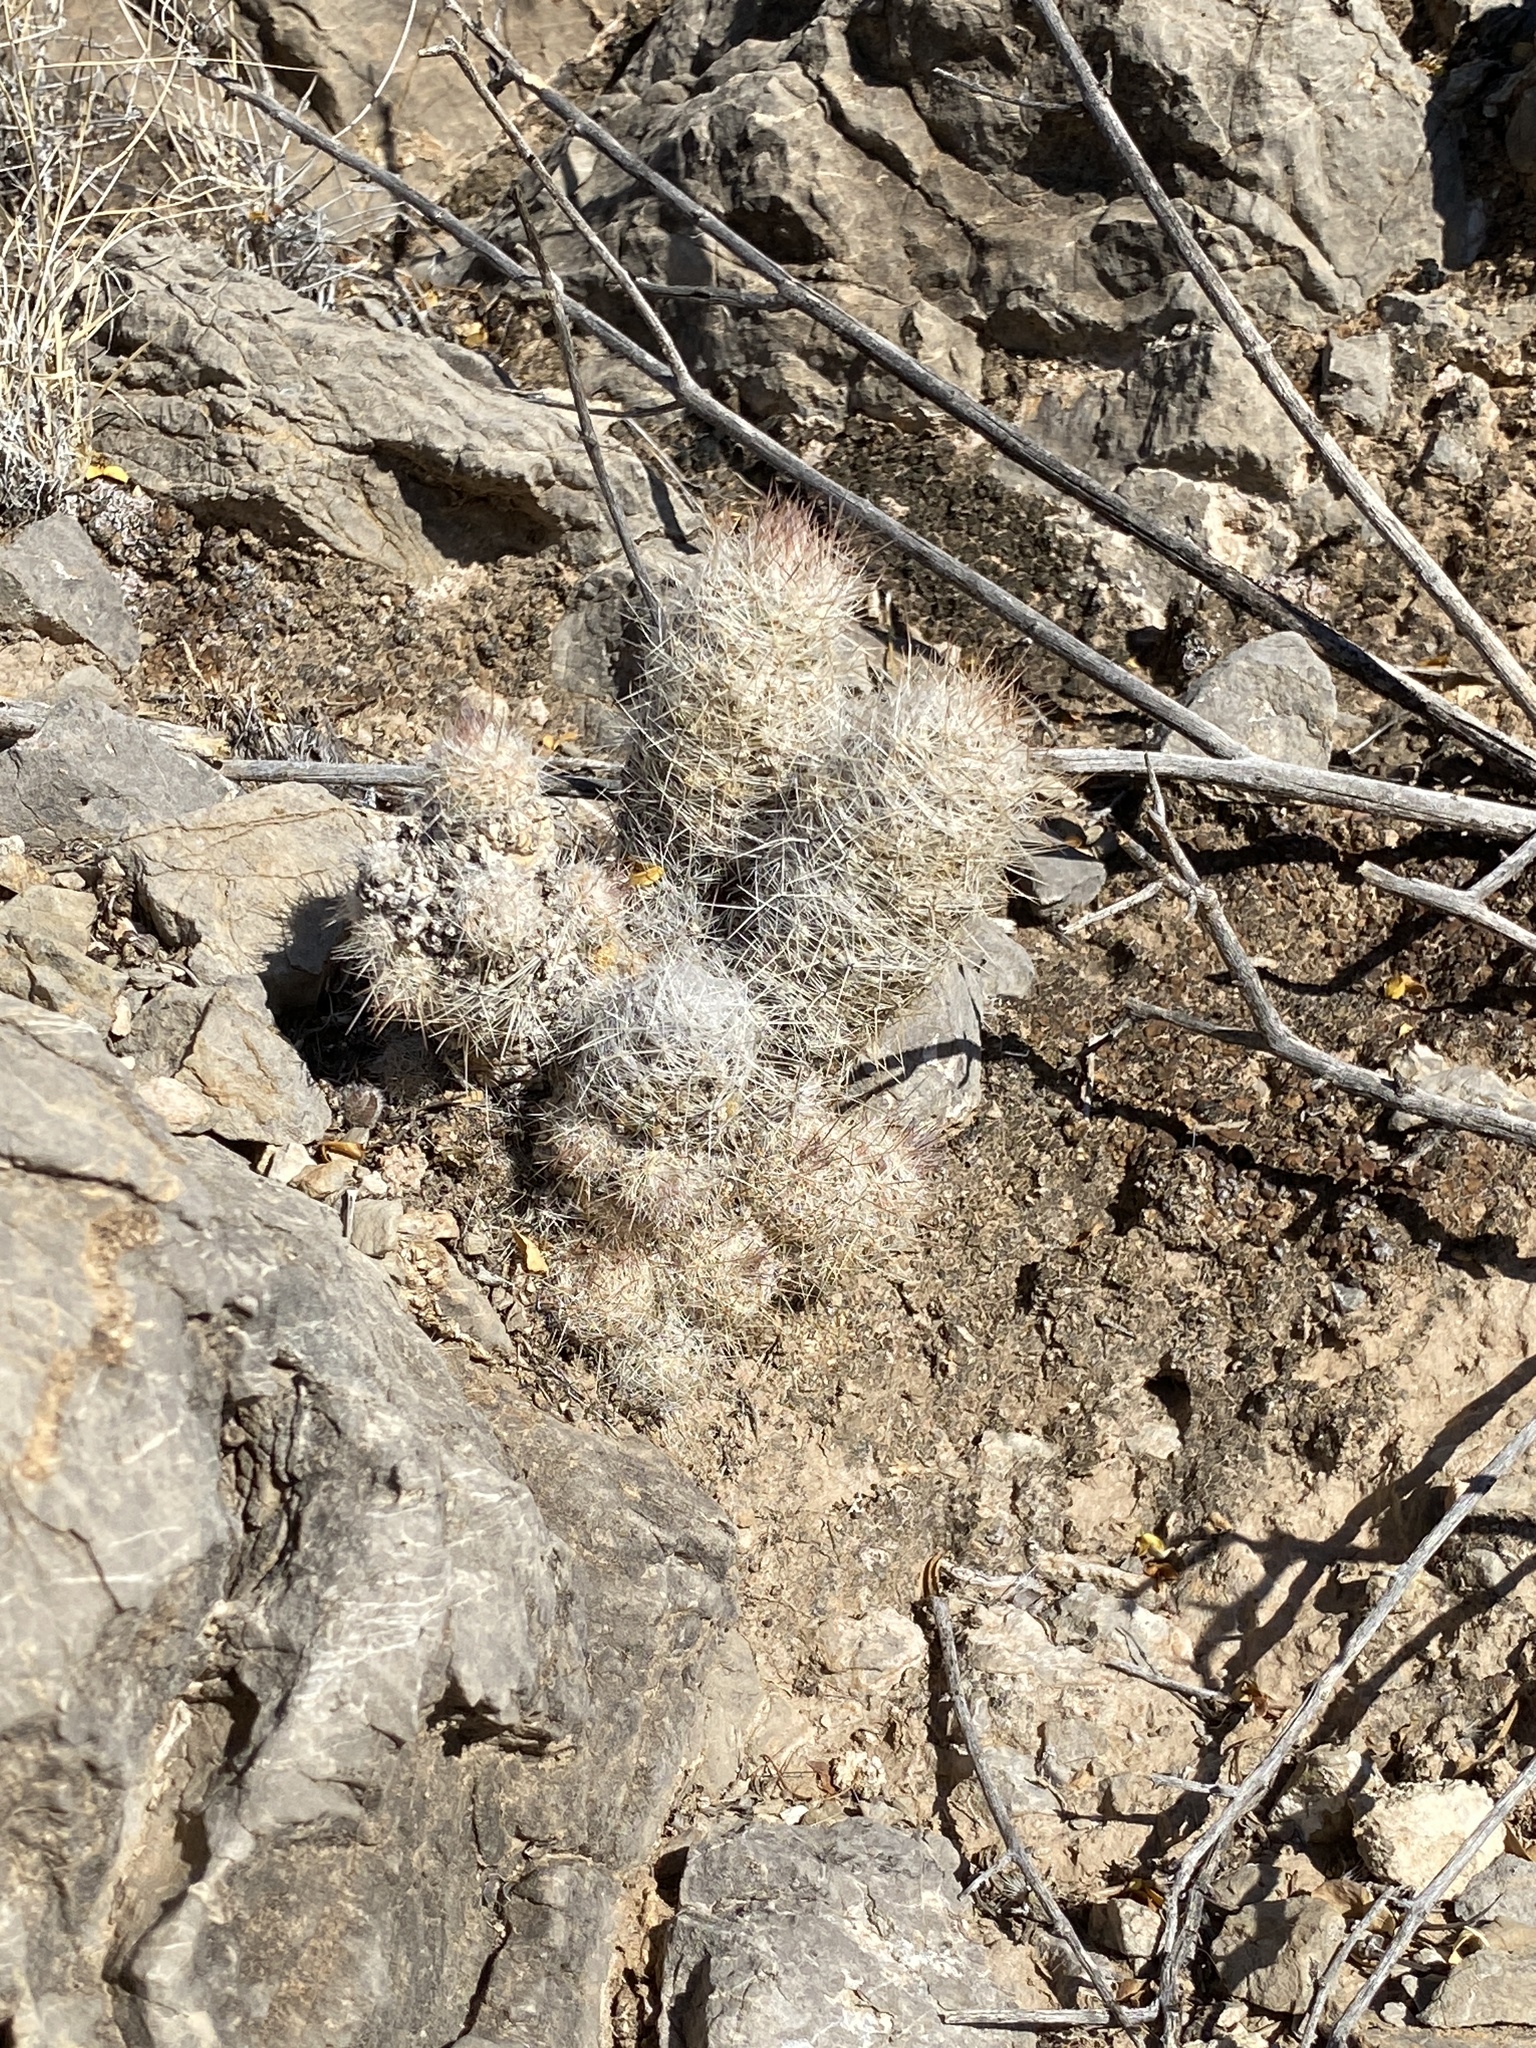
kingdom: Plantae
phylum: Tracheophyta
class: Magnoliopsida
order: Caryophyllales
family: Cactaceae
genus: Pelecyphora
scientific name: Pelecyphora tuberculosa
